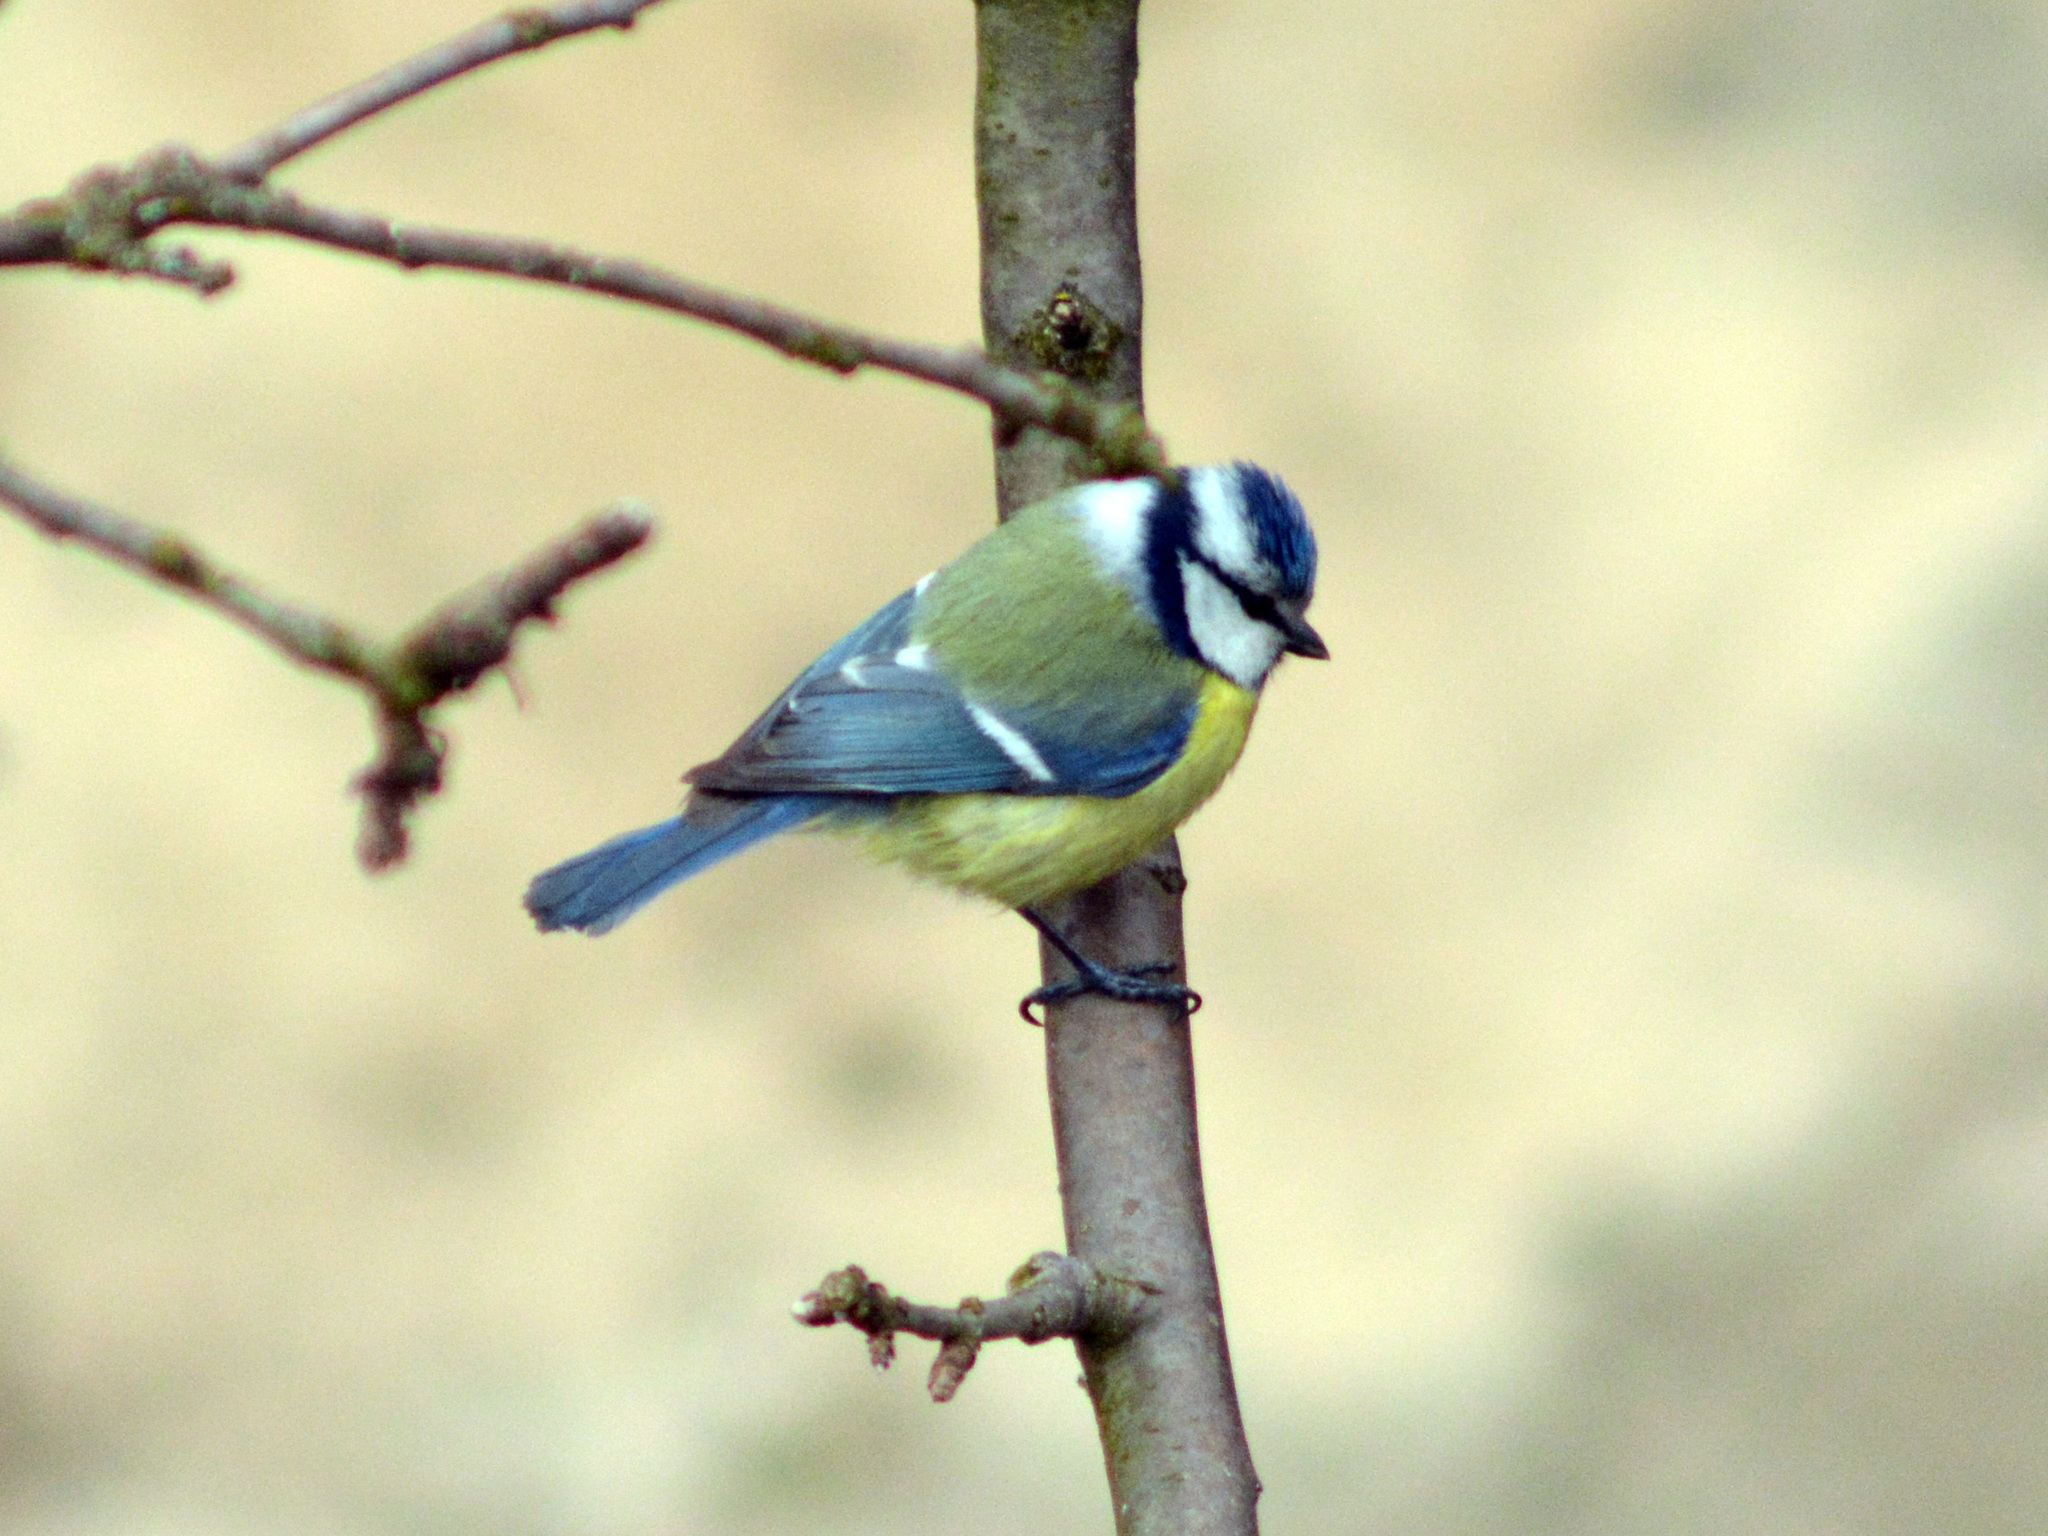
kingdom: Animalia
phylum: Chordata
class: Aves
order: Passeriformes
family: Paridae
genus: Cyanistes
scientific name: Cyanistes caeruleus
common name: Eurasian blue tit
